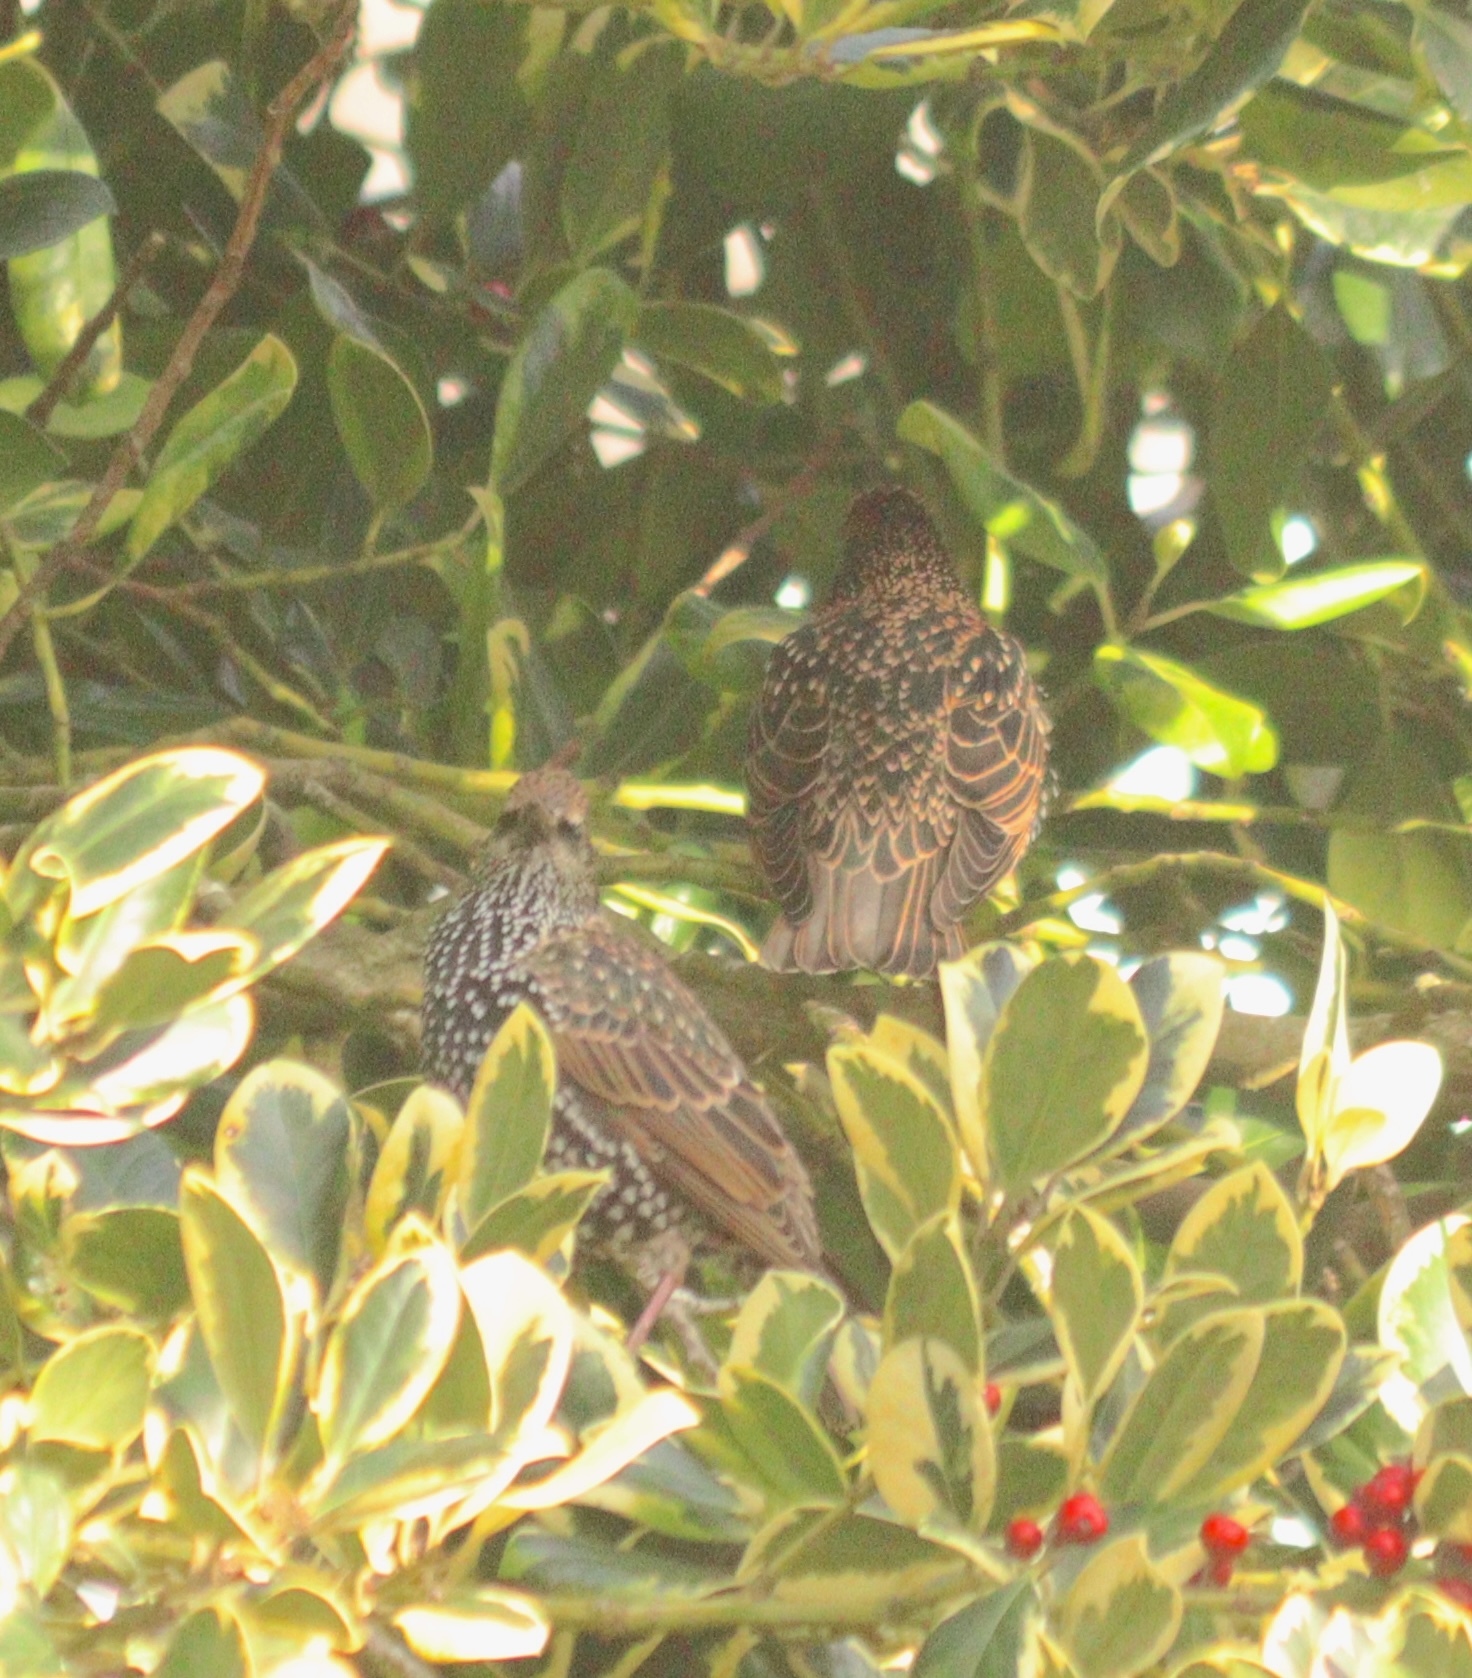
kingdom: Animalia
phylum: Chordata
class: Aves
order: Passeriformes
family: Sturnidae
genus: Sturnus
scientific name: Sturnus vulgaris
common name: Common starling
